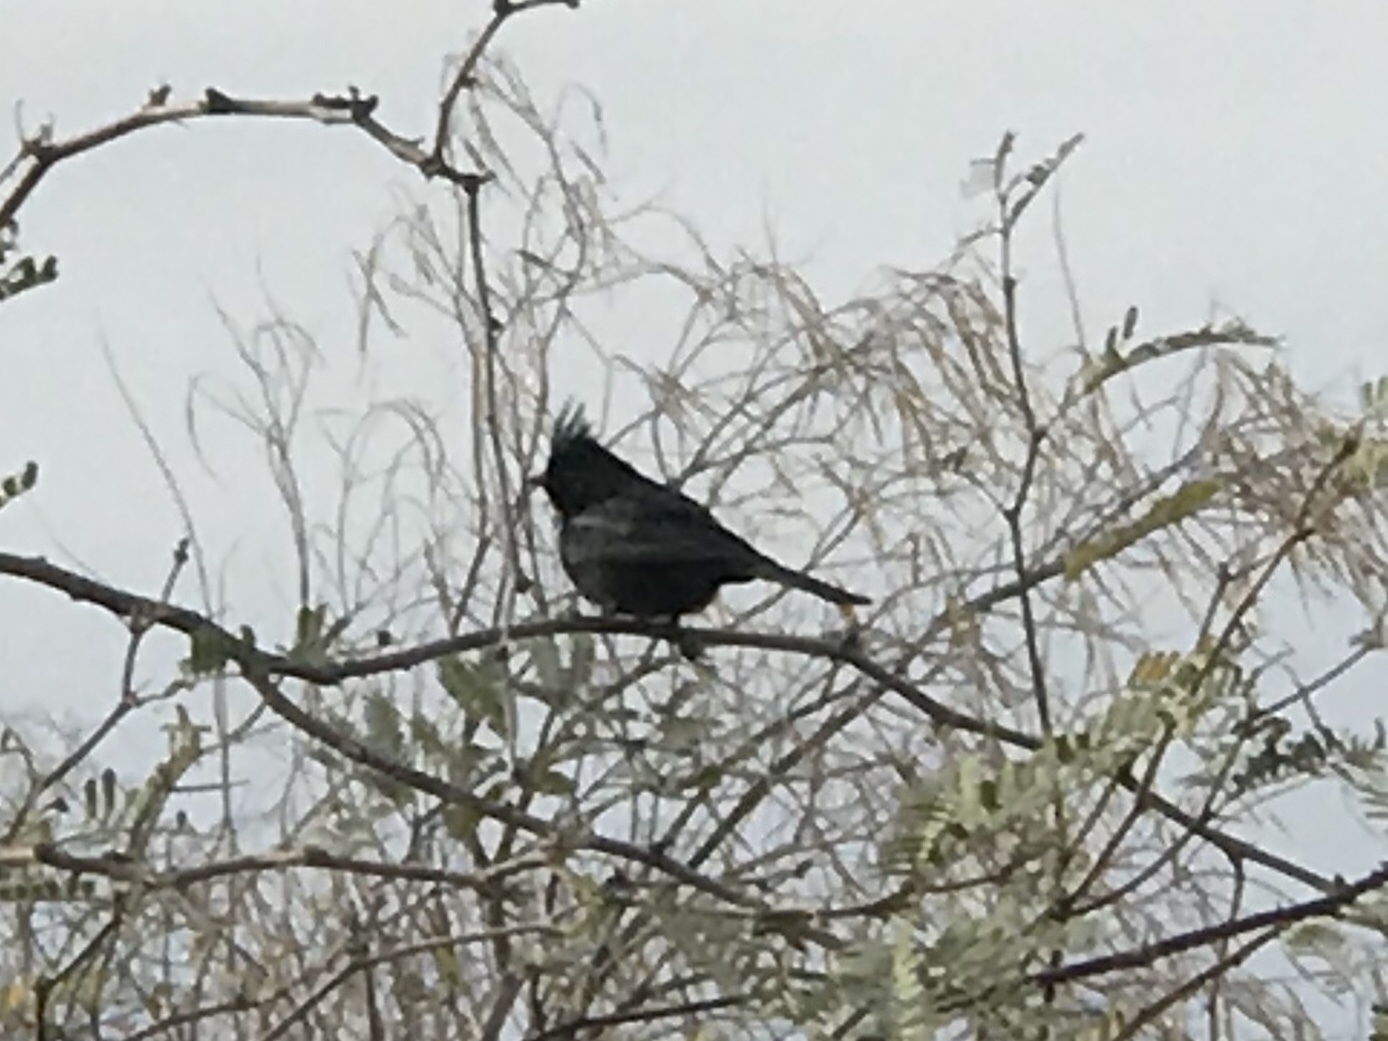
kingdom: Animalia
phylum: Chordata
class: Aves
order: Passeriformes
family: Ptilogonatidae
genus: Phainopepla
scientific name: Phainopepla nitens
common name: Phainopepla
